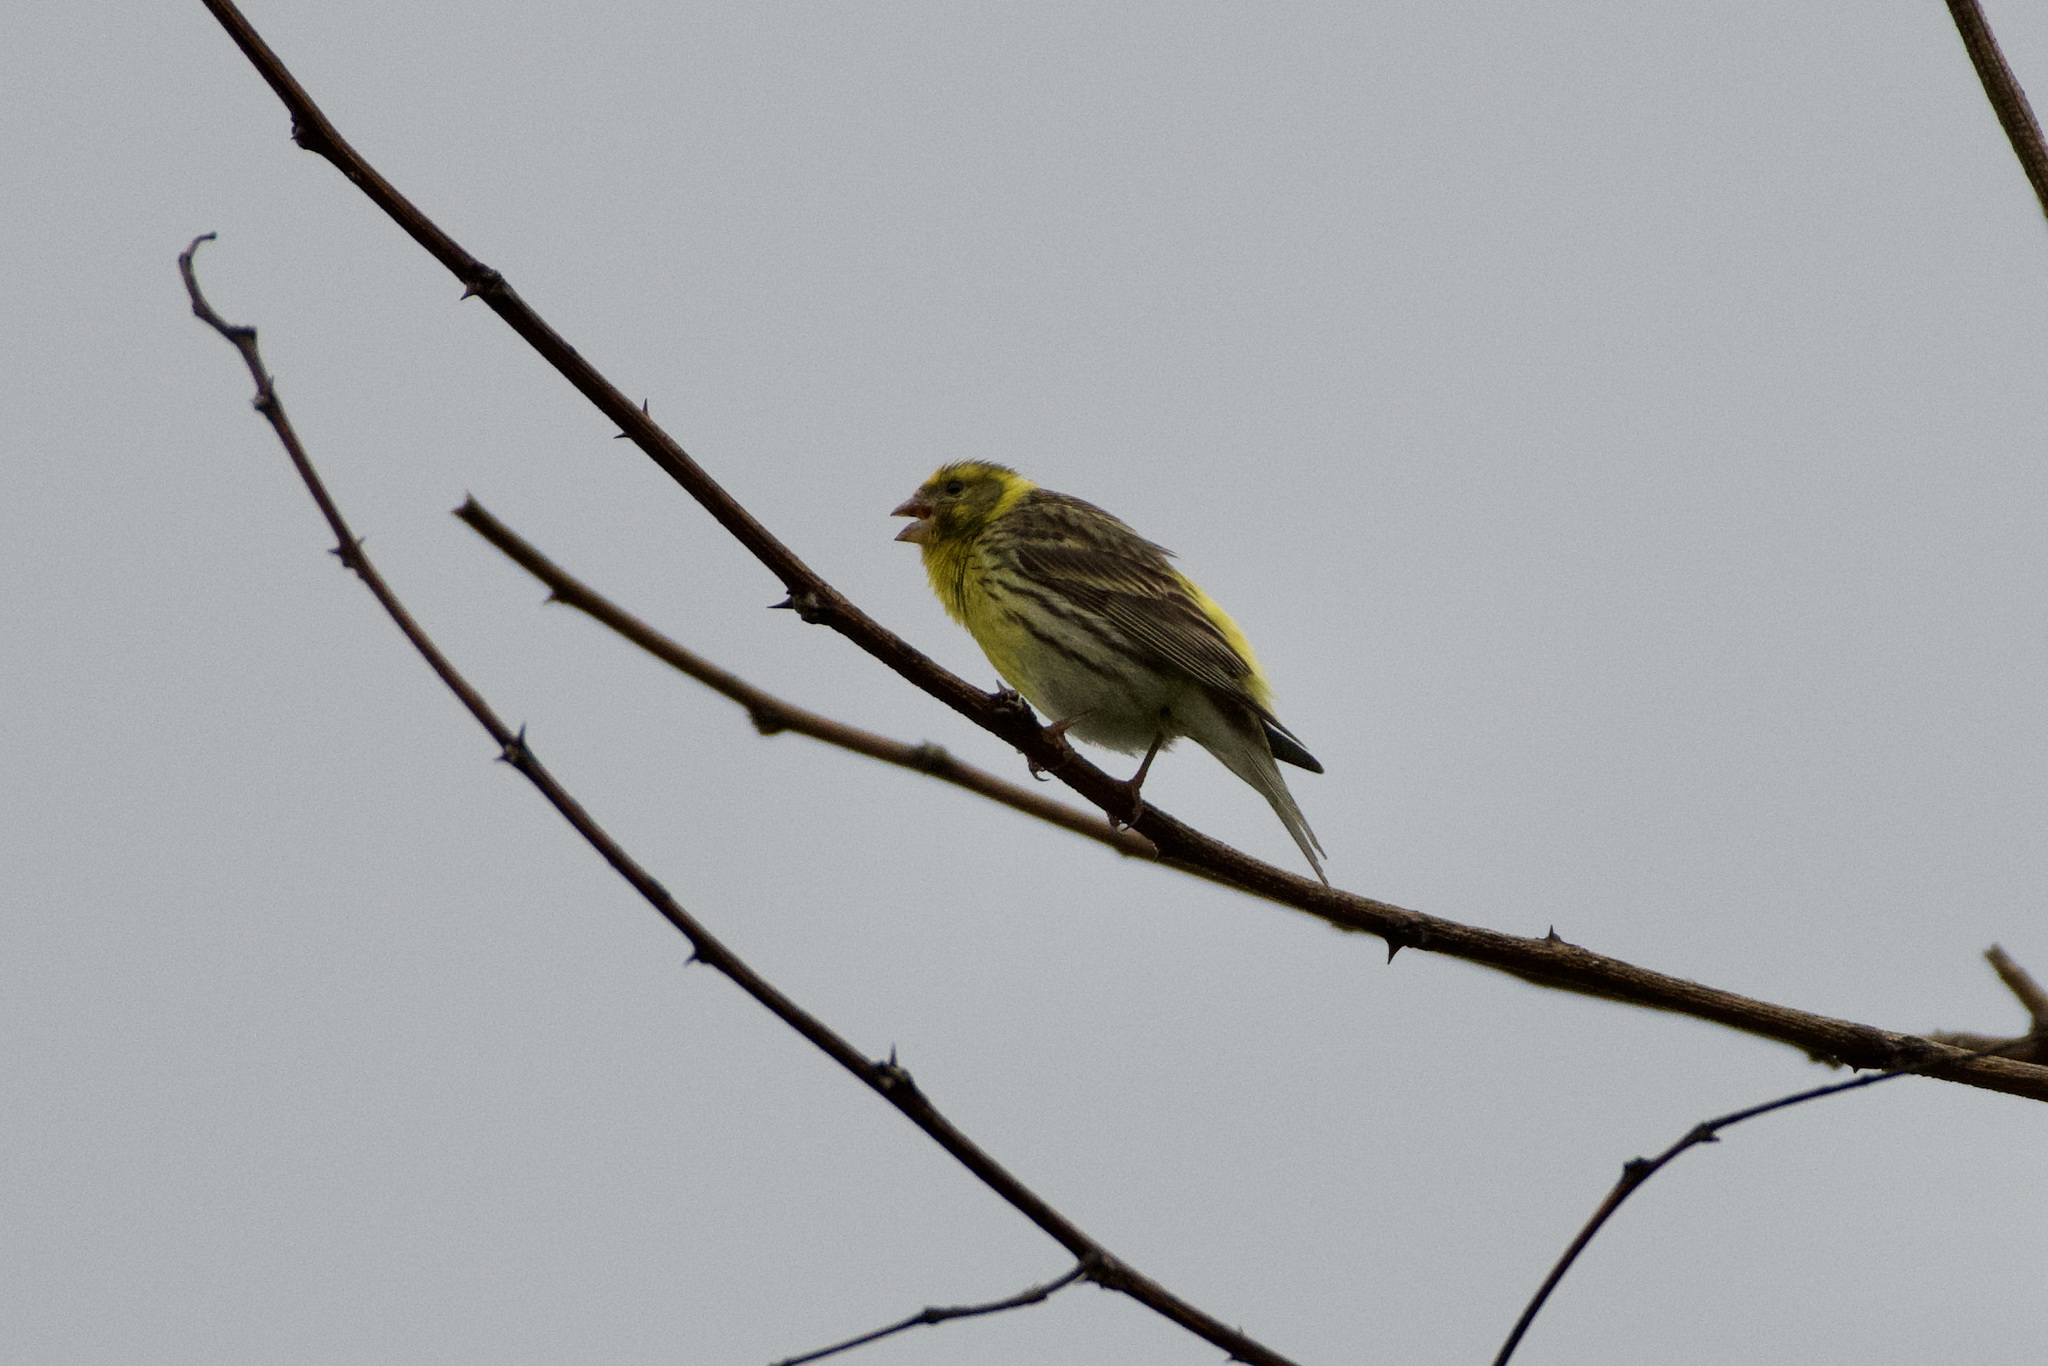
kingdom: Animalia
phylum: Chordata
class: Aves
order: Passeriformes
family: Fringillidae
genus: Serinus
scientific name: Serinus serinus
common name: European serin
